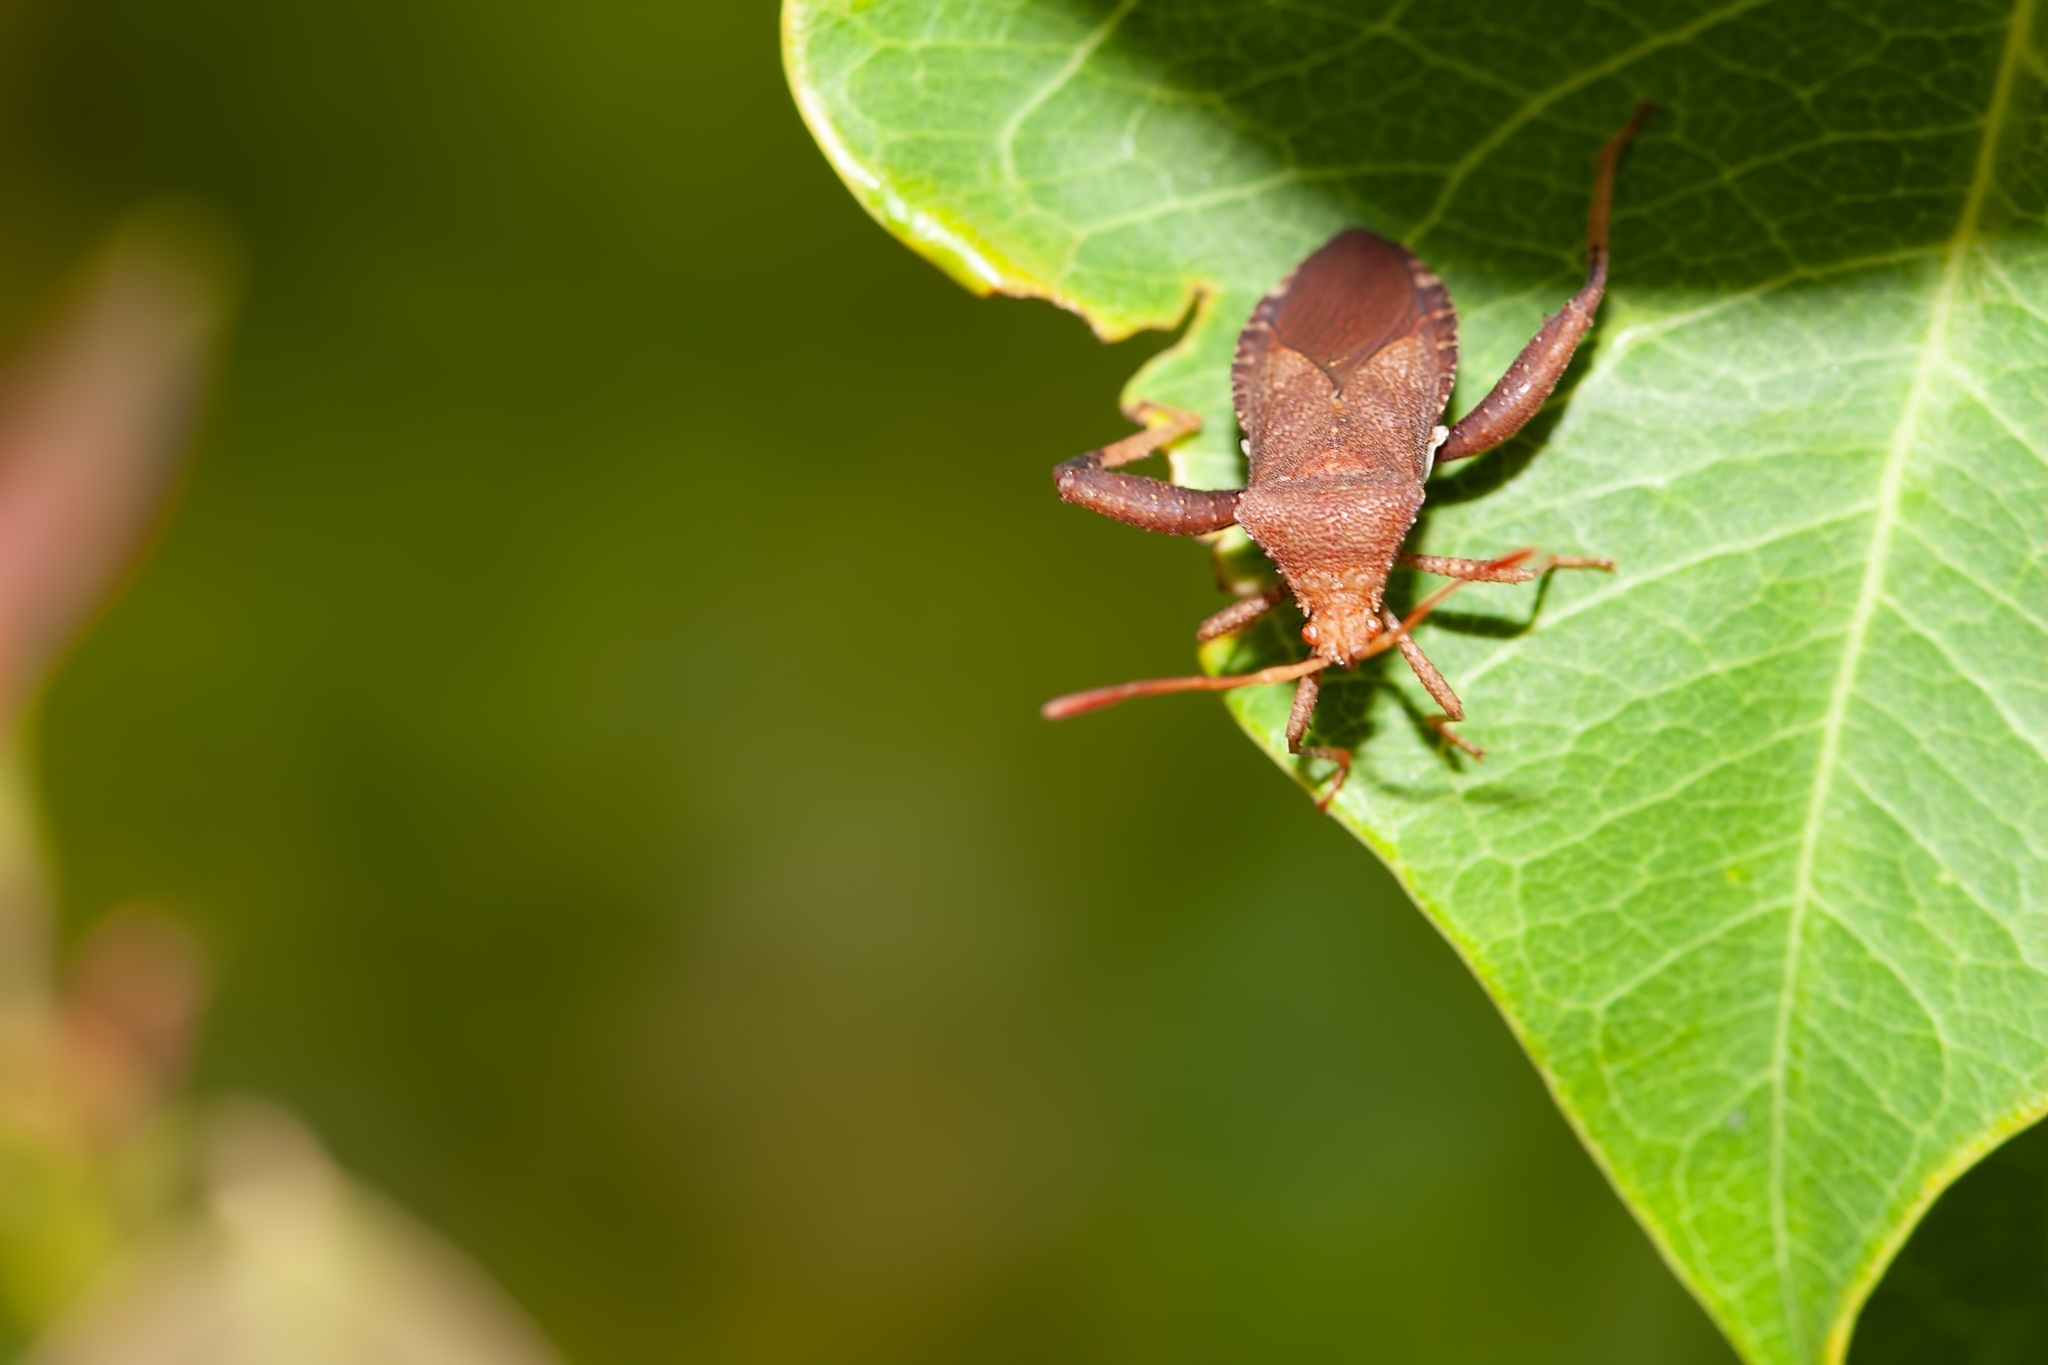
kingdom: Animalia
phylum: Arthropoda
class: Insecta
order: Hemiptera
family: Coreidae
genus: Euthochtha
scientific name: Euthochtha galeator
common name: Helmeted squash bug
